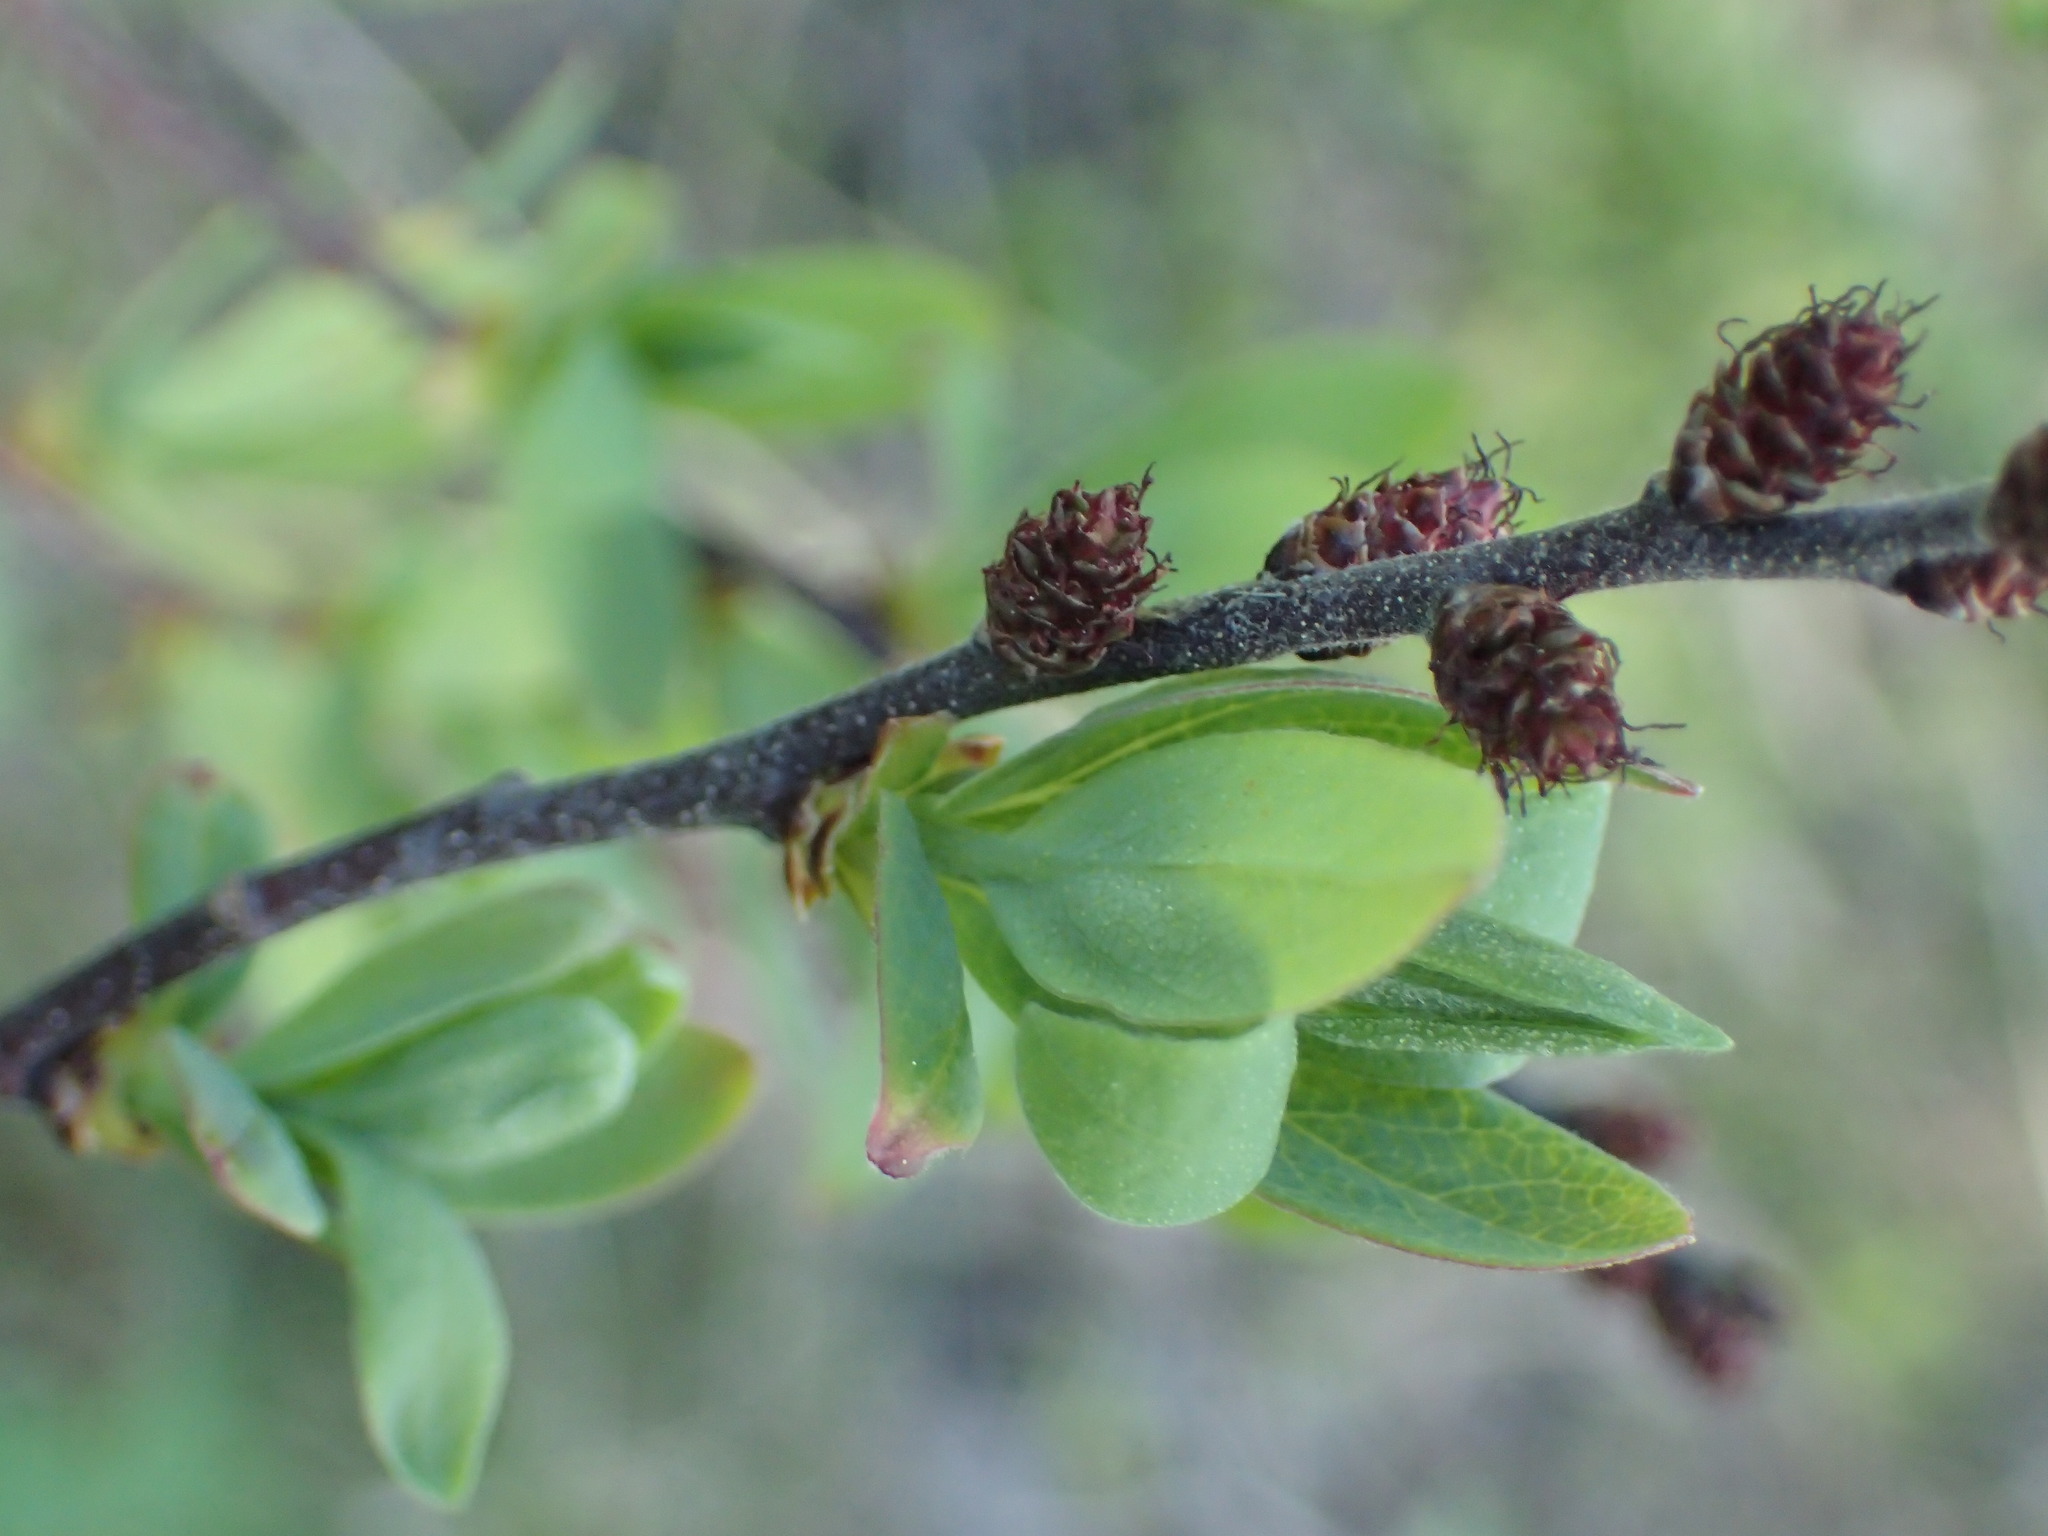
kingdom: Plantae
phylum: Tracheophyta
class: Magnoliopsida
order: Fagales
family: Myricaceae
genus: Myrica
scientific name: Myrica gale
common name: Sweet gale
